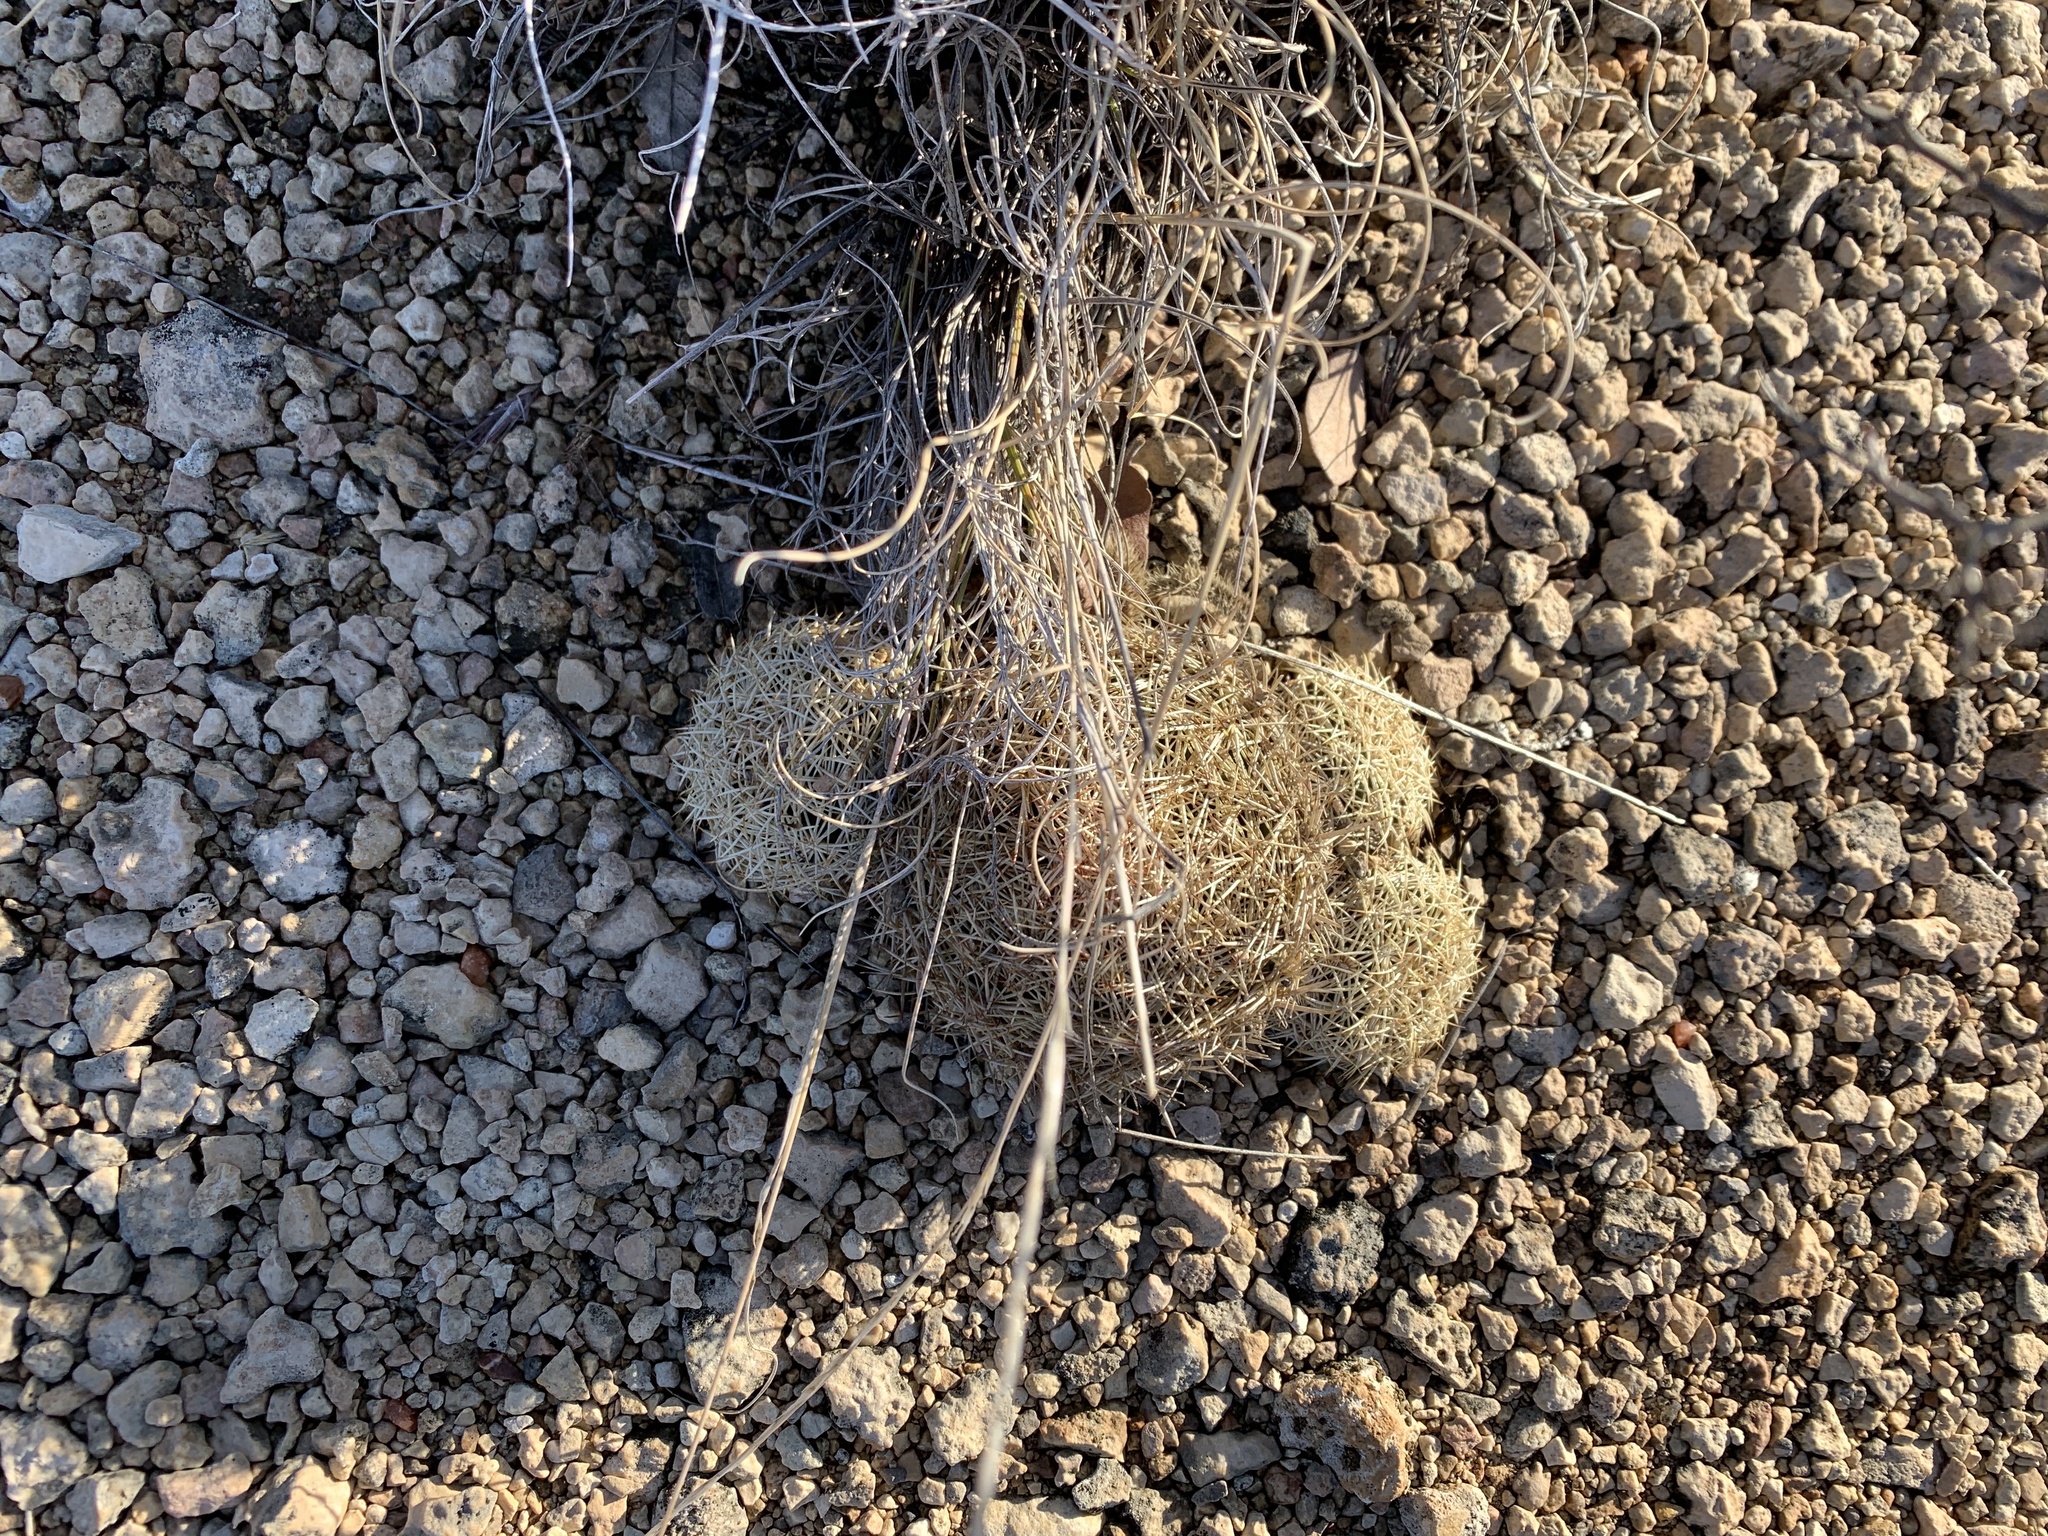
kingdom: Plantae
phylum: Tracheophyta
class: Magnoliopsida
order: Caryophyllales
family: Cactaceae
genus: Coryphantha
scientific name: Coryphantha echinus
